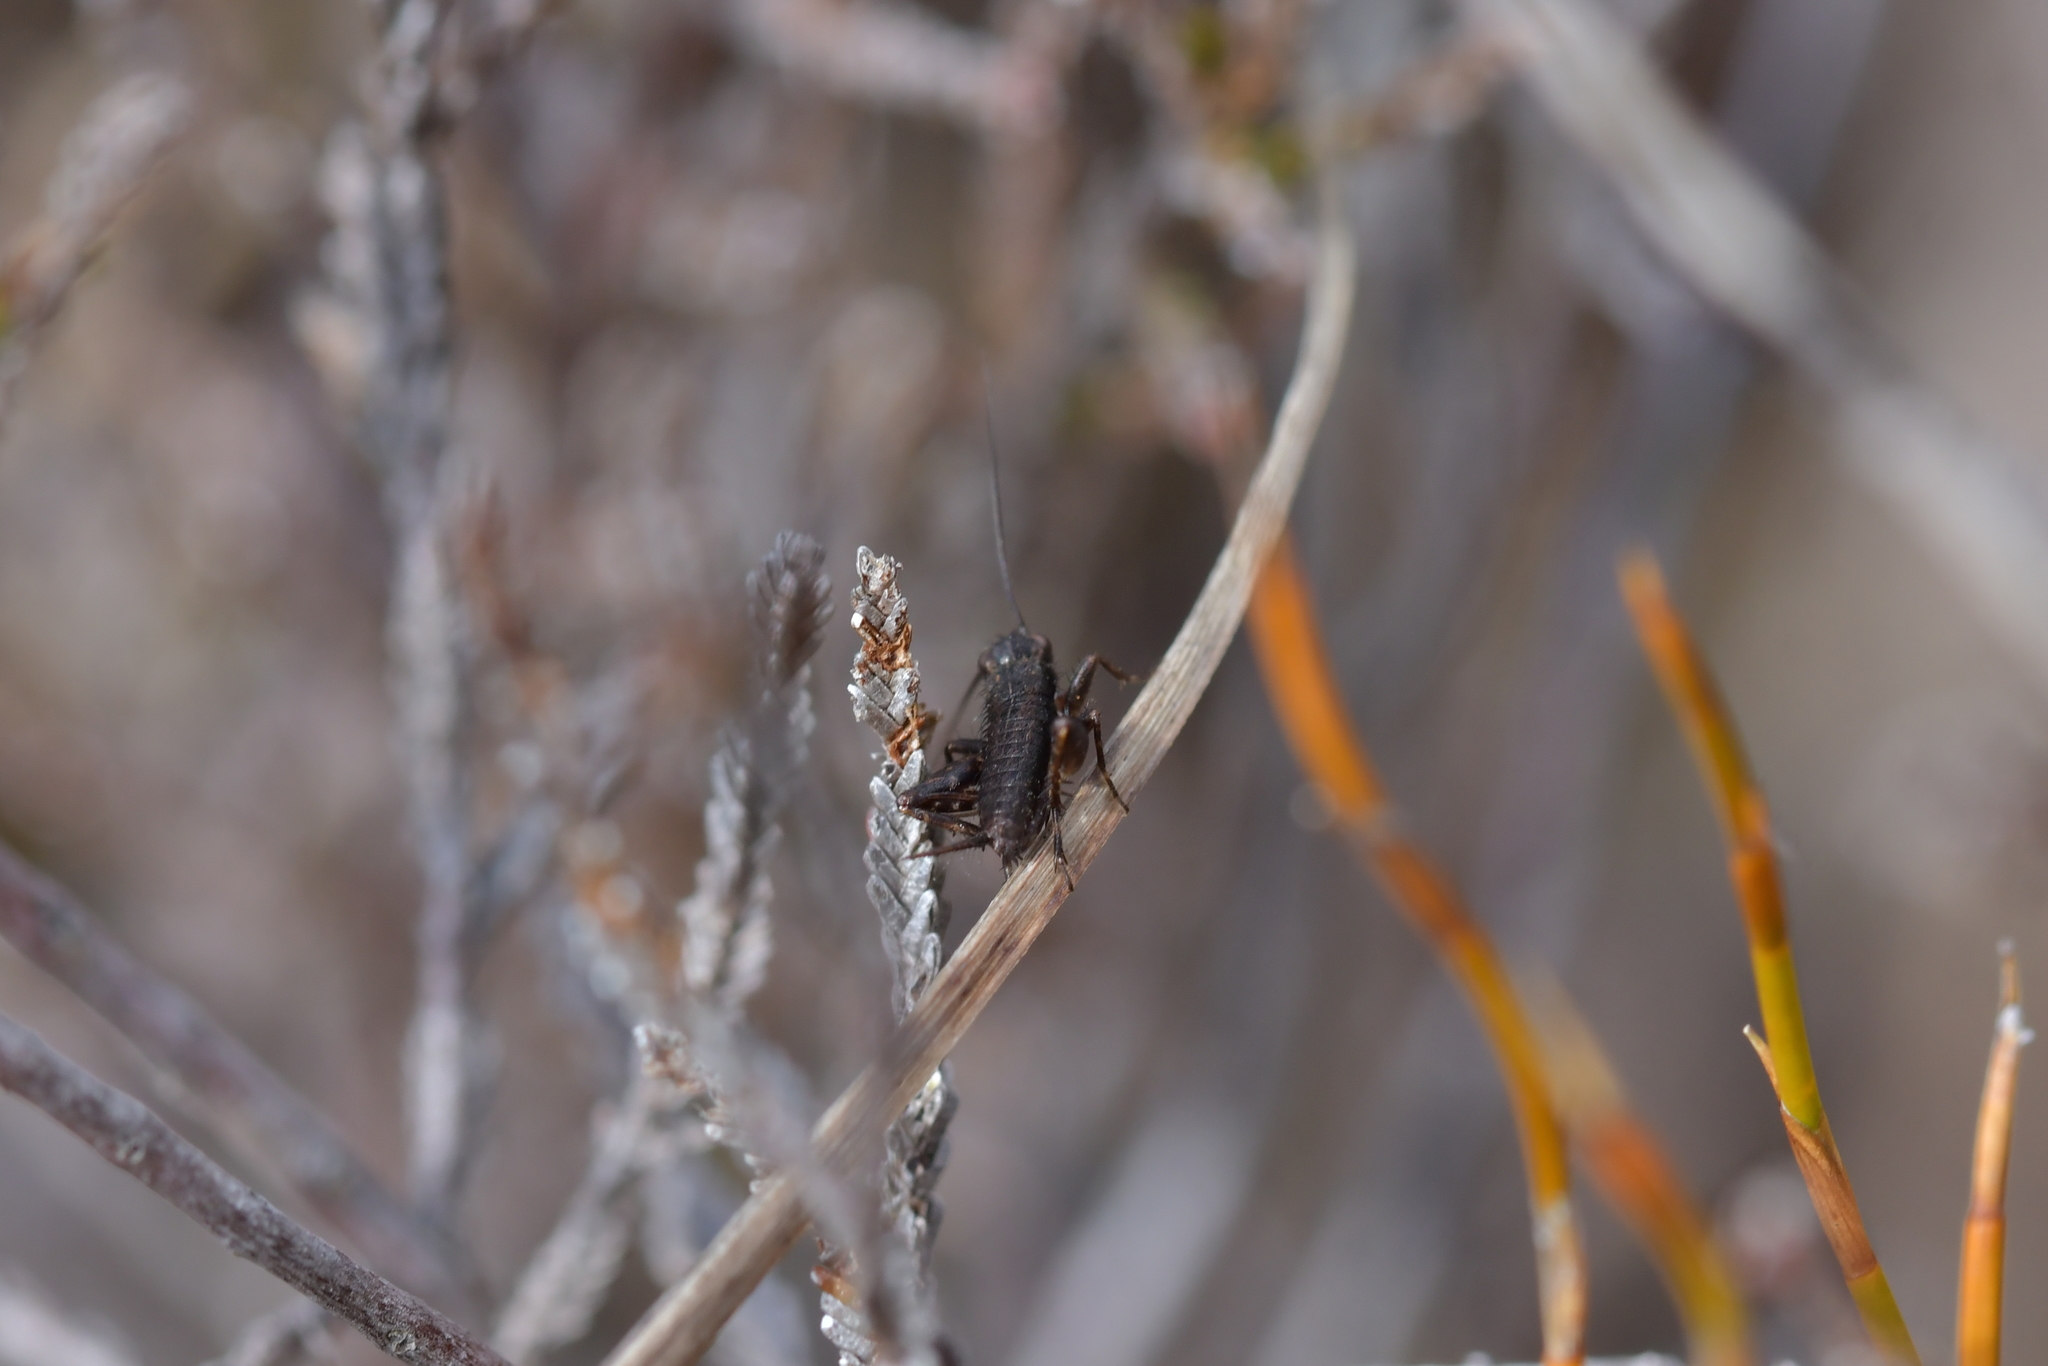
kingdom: Animalia
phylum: Arthropoda
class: Insecta
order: Orthoptera
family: Trigonidiidae
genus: Bobilla
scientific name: Bobilla bigelowi
